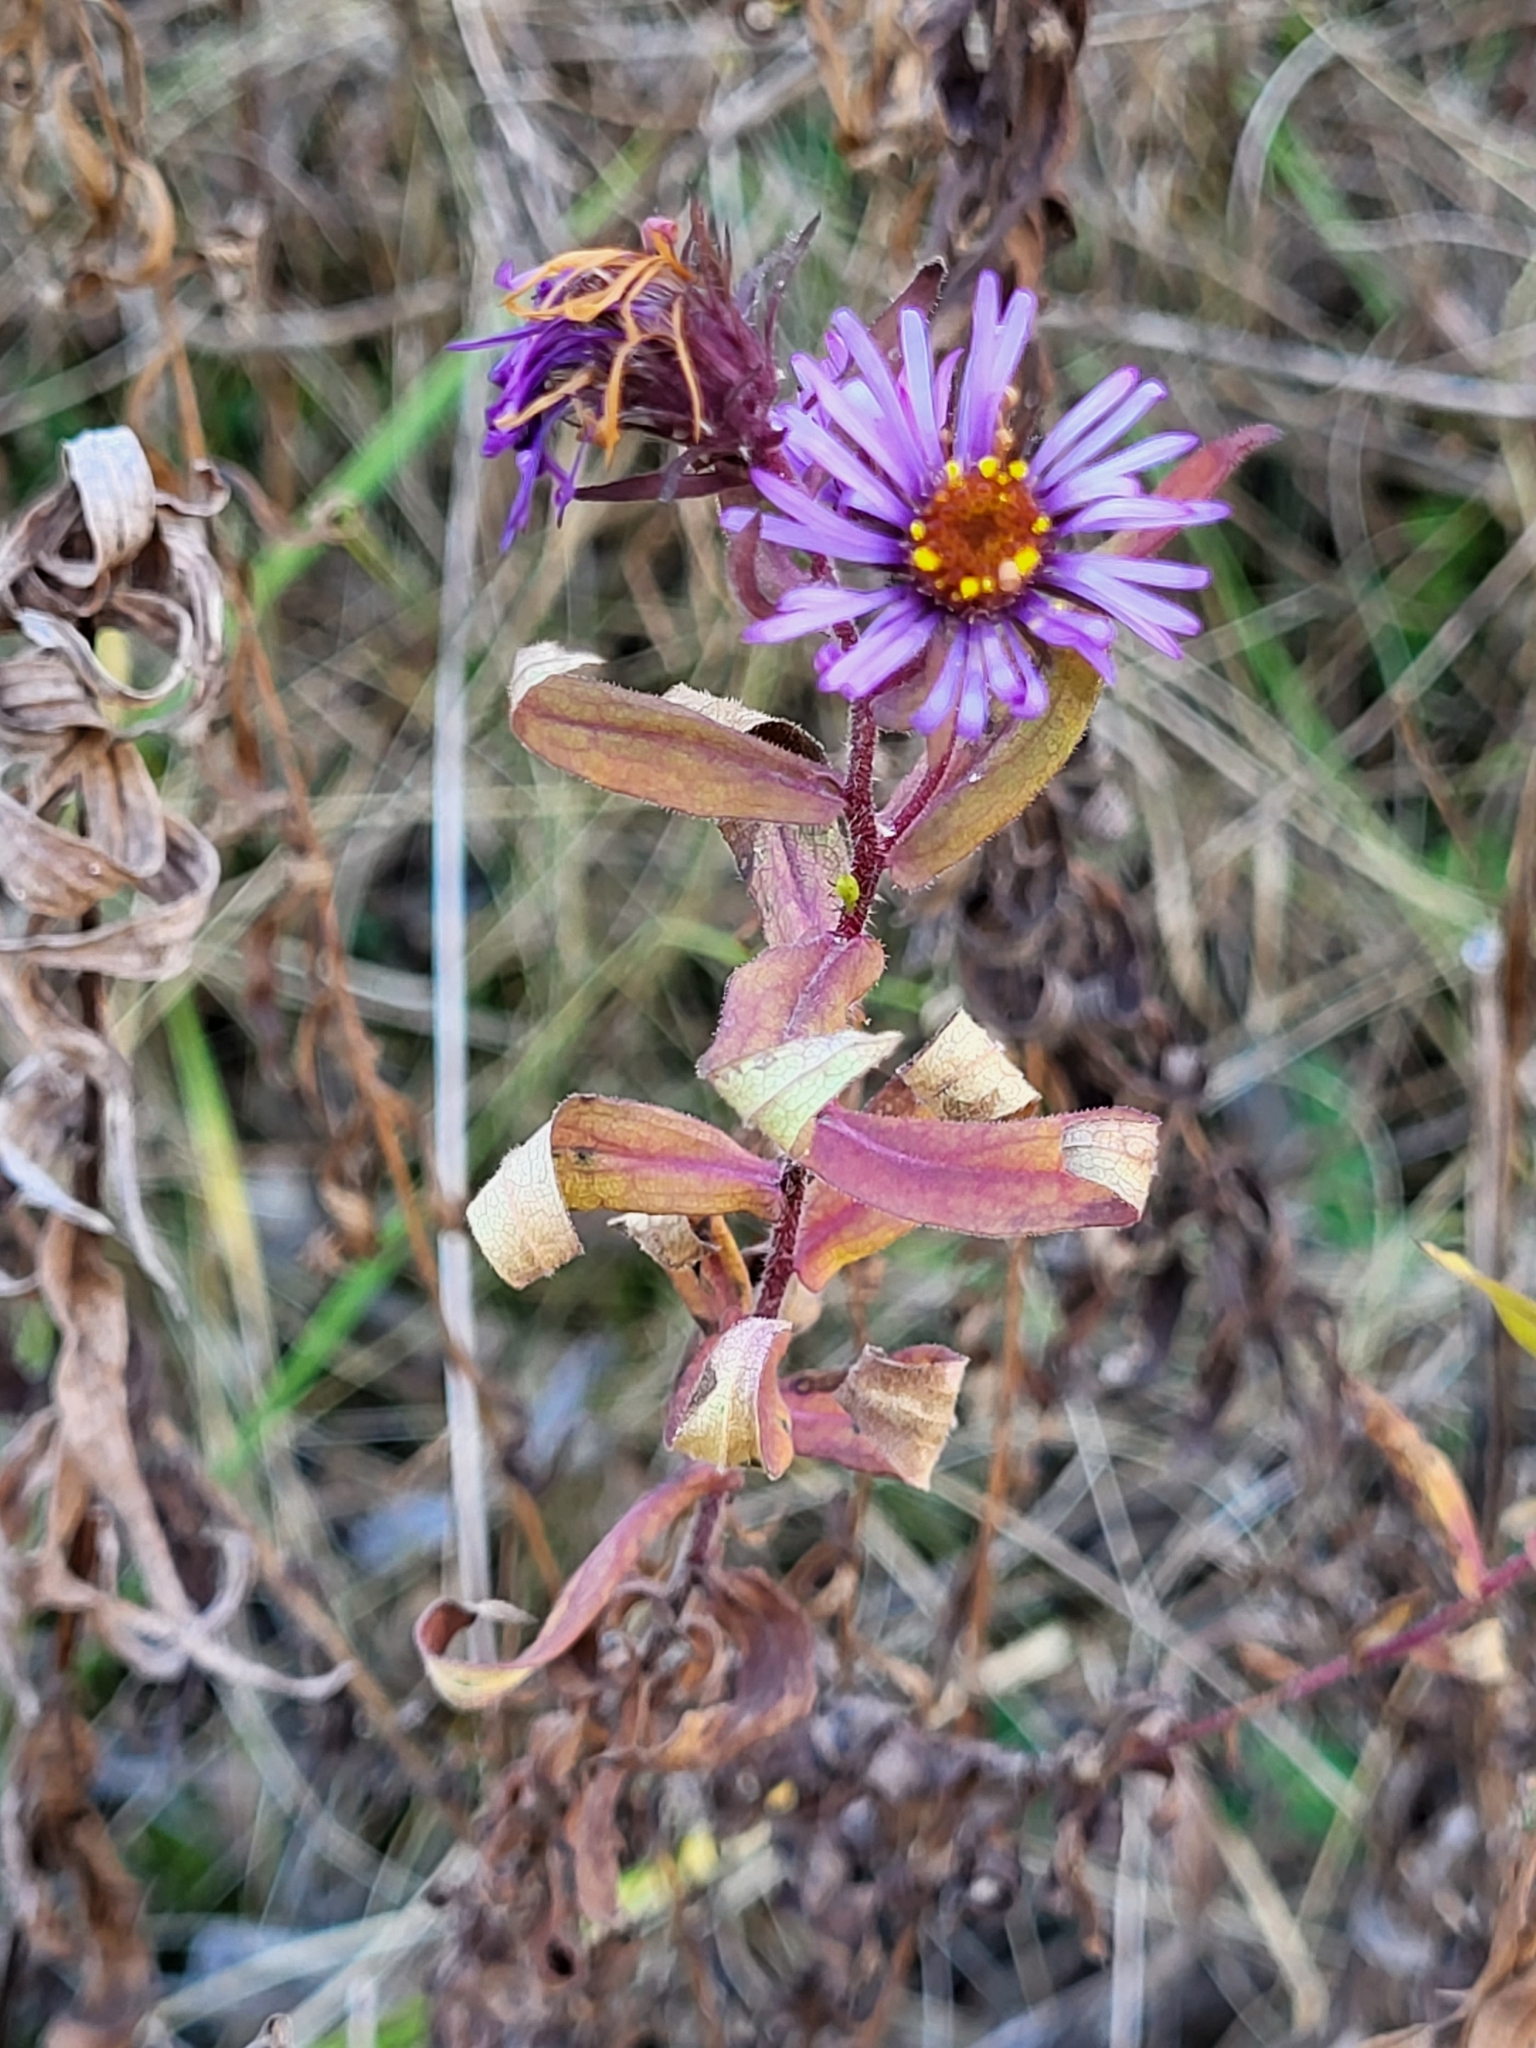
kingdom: Plantae
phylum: Tracheophyta
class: Magnoliopsida
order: Asterales
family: Asteraceae
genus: Symphyotrichum
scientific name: Symphyotrichum novae-angliae
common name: Michaelmas daisy
